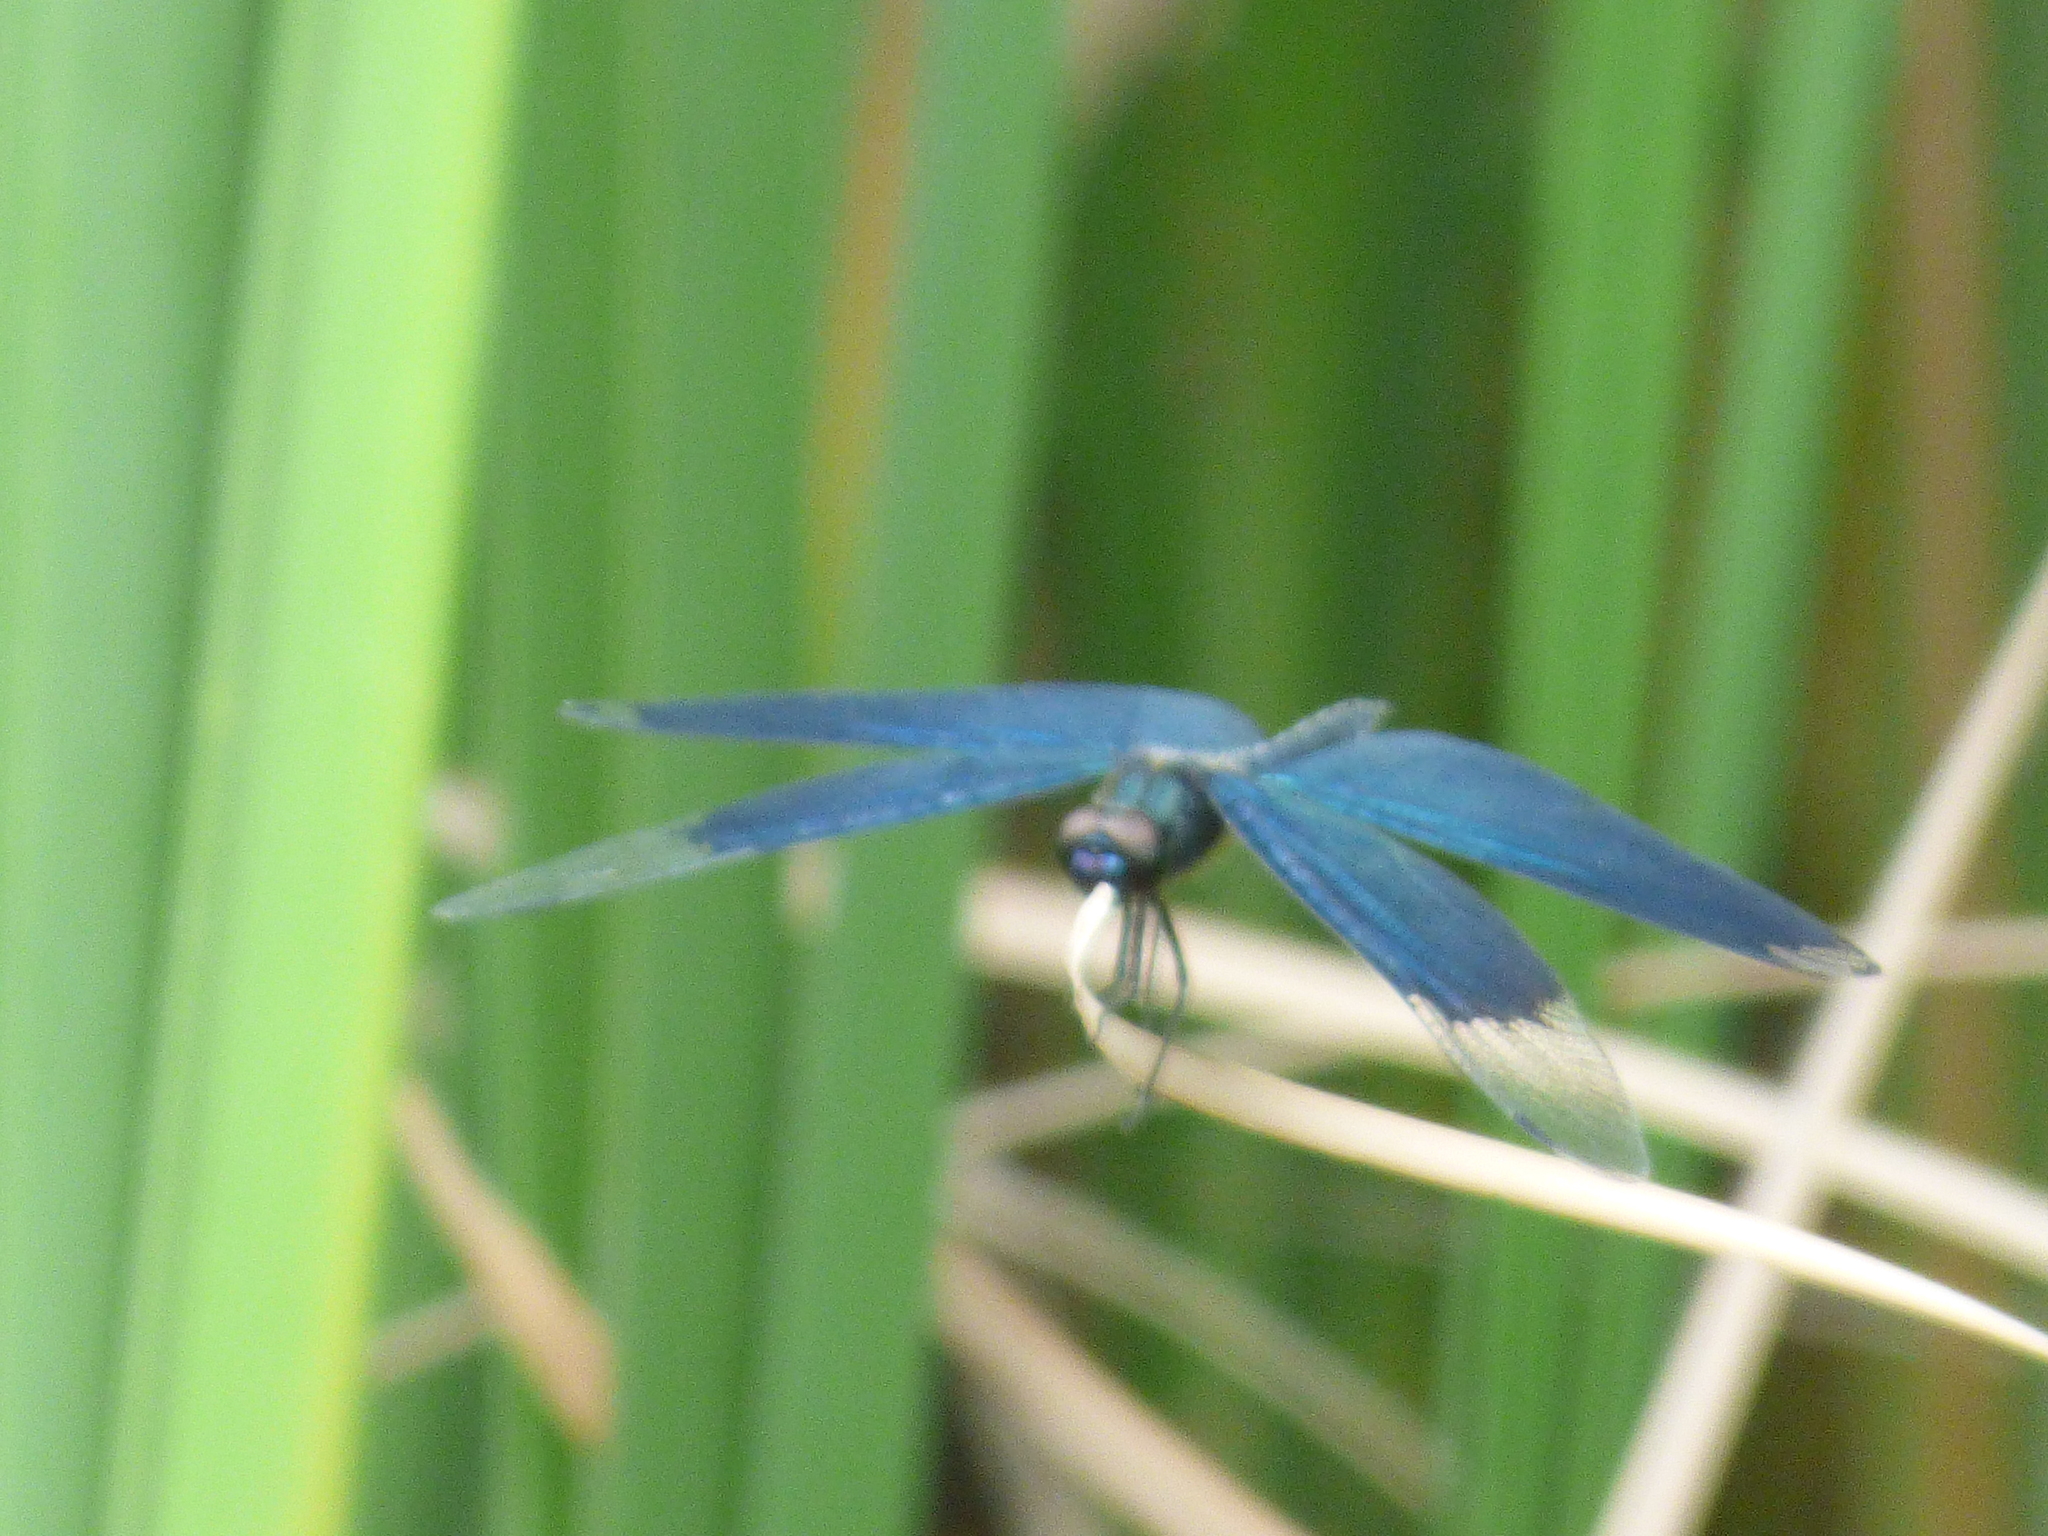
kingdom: Animalia
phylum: Arthropoda
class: Insecta
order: Odonata
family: Libellulidae
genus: Rhyothemis
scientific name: Rhyothemis fuliginosa
